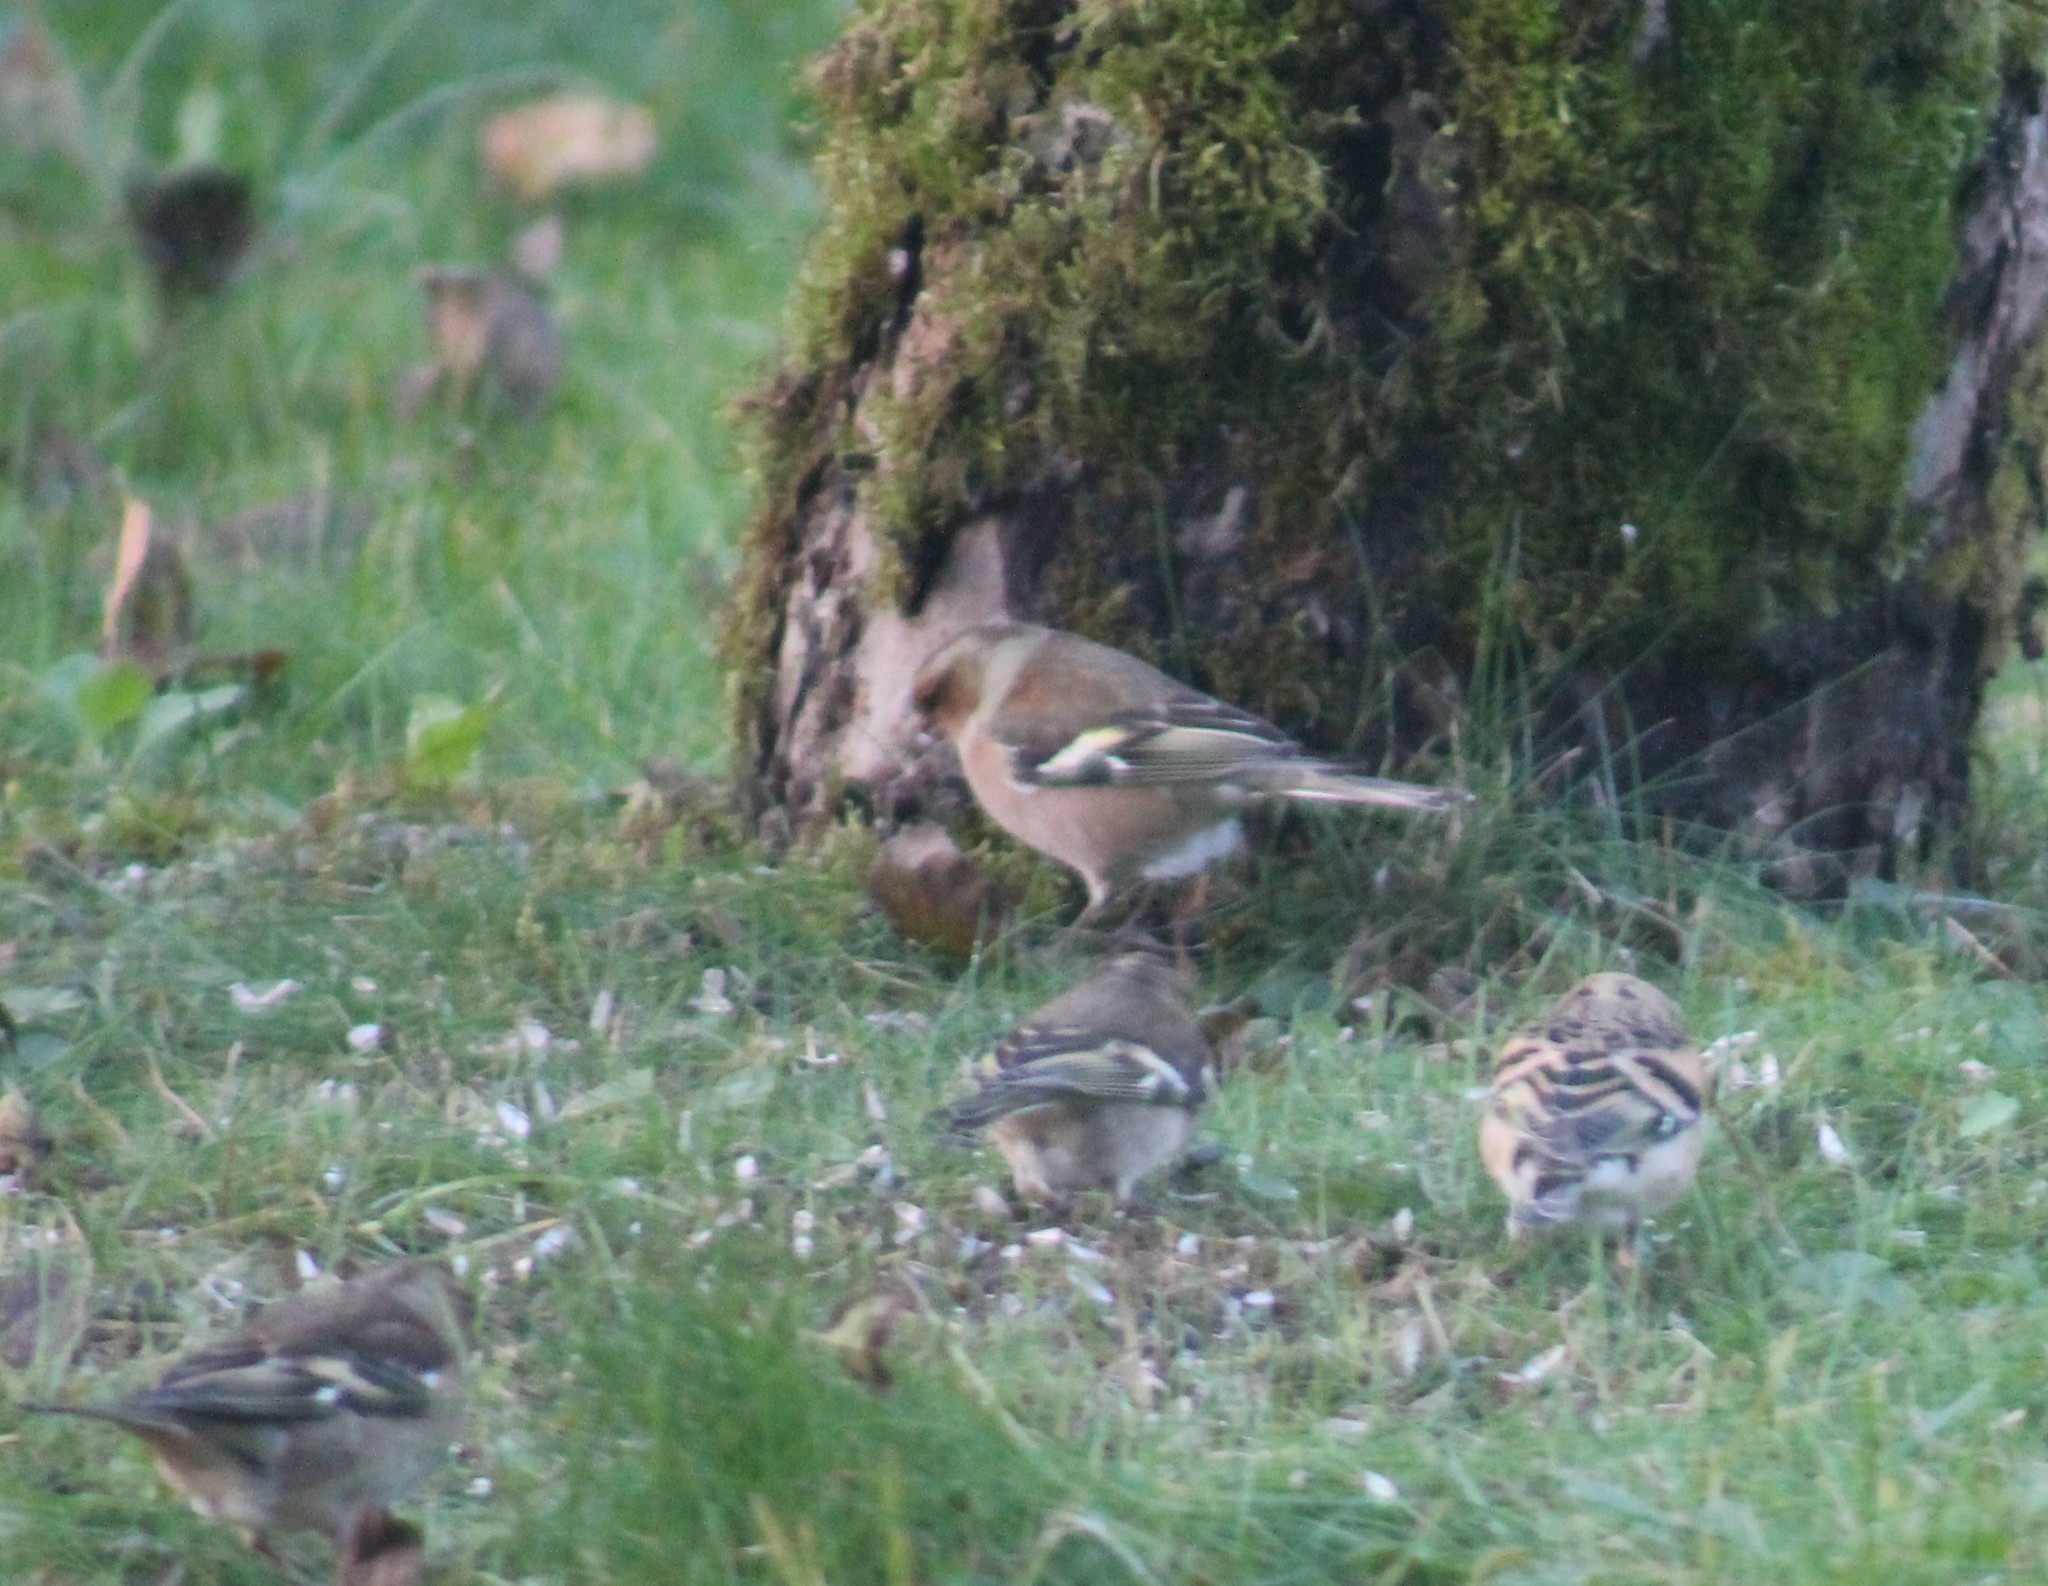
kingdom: Animalia
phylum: Chordata
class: Aves
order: Passeriformes
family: Fringillidae
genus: Fringilla
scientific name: Fringilla coelebs
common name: Common chaffinch
